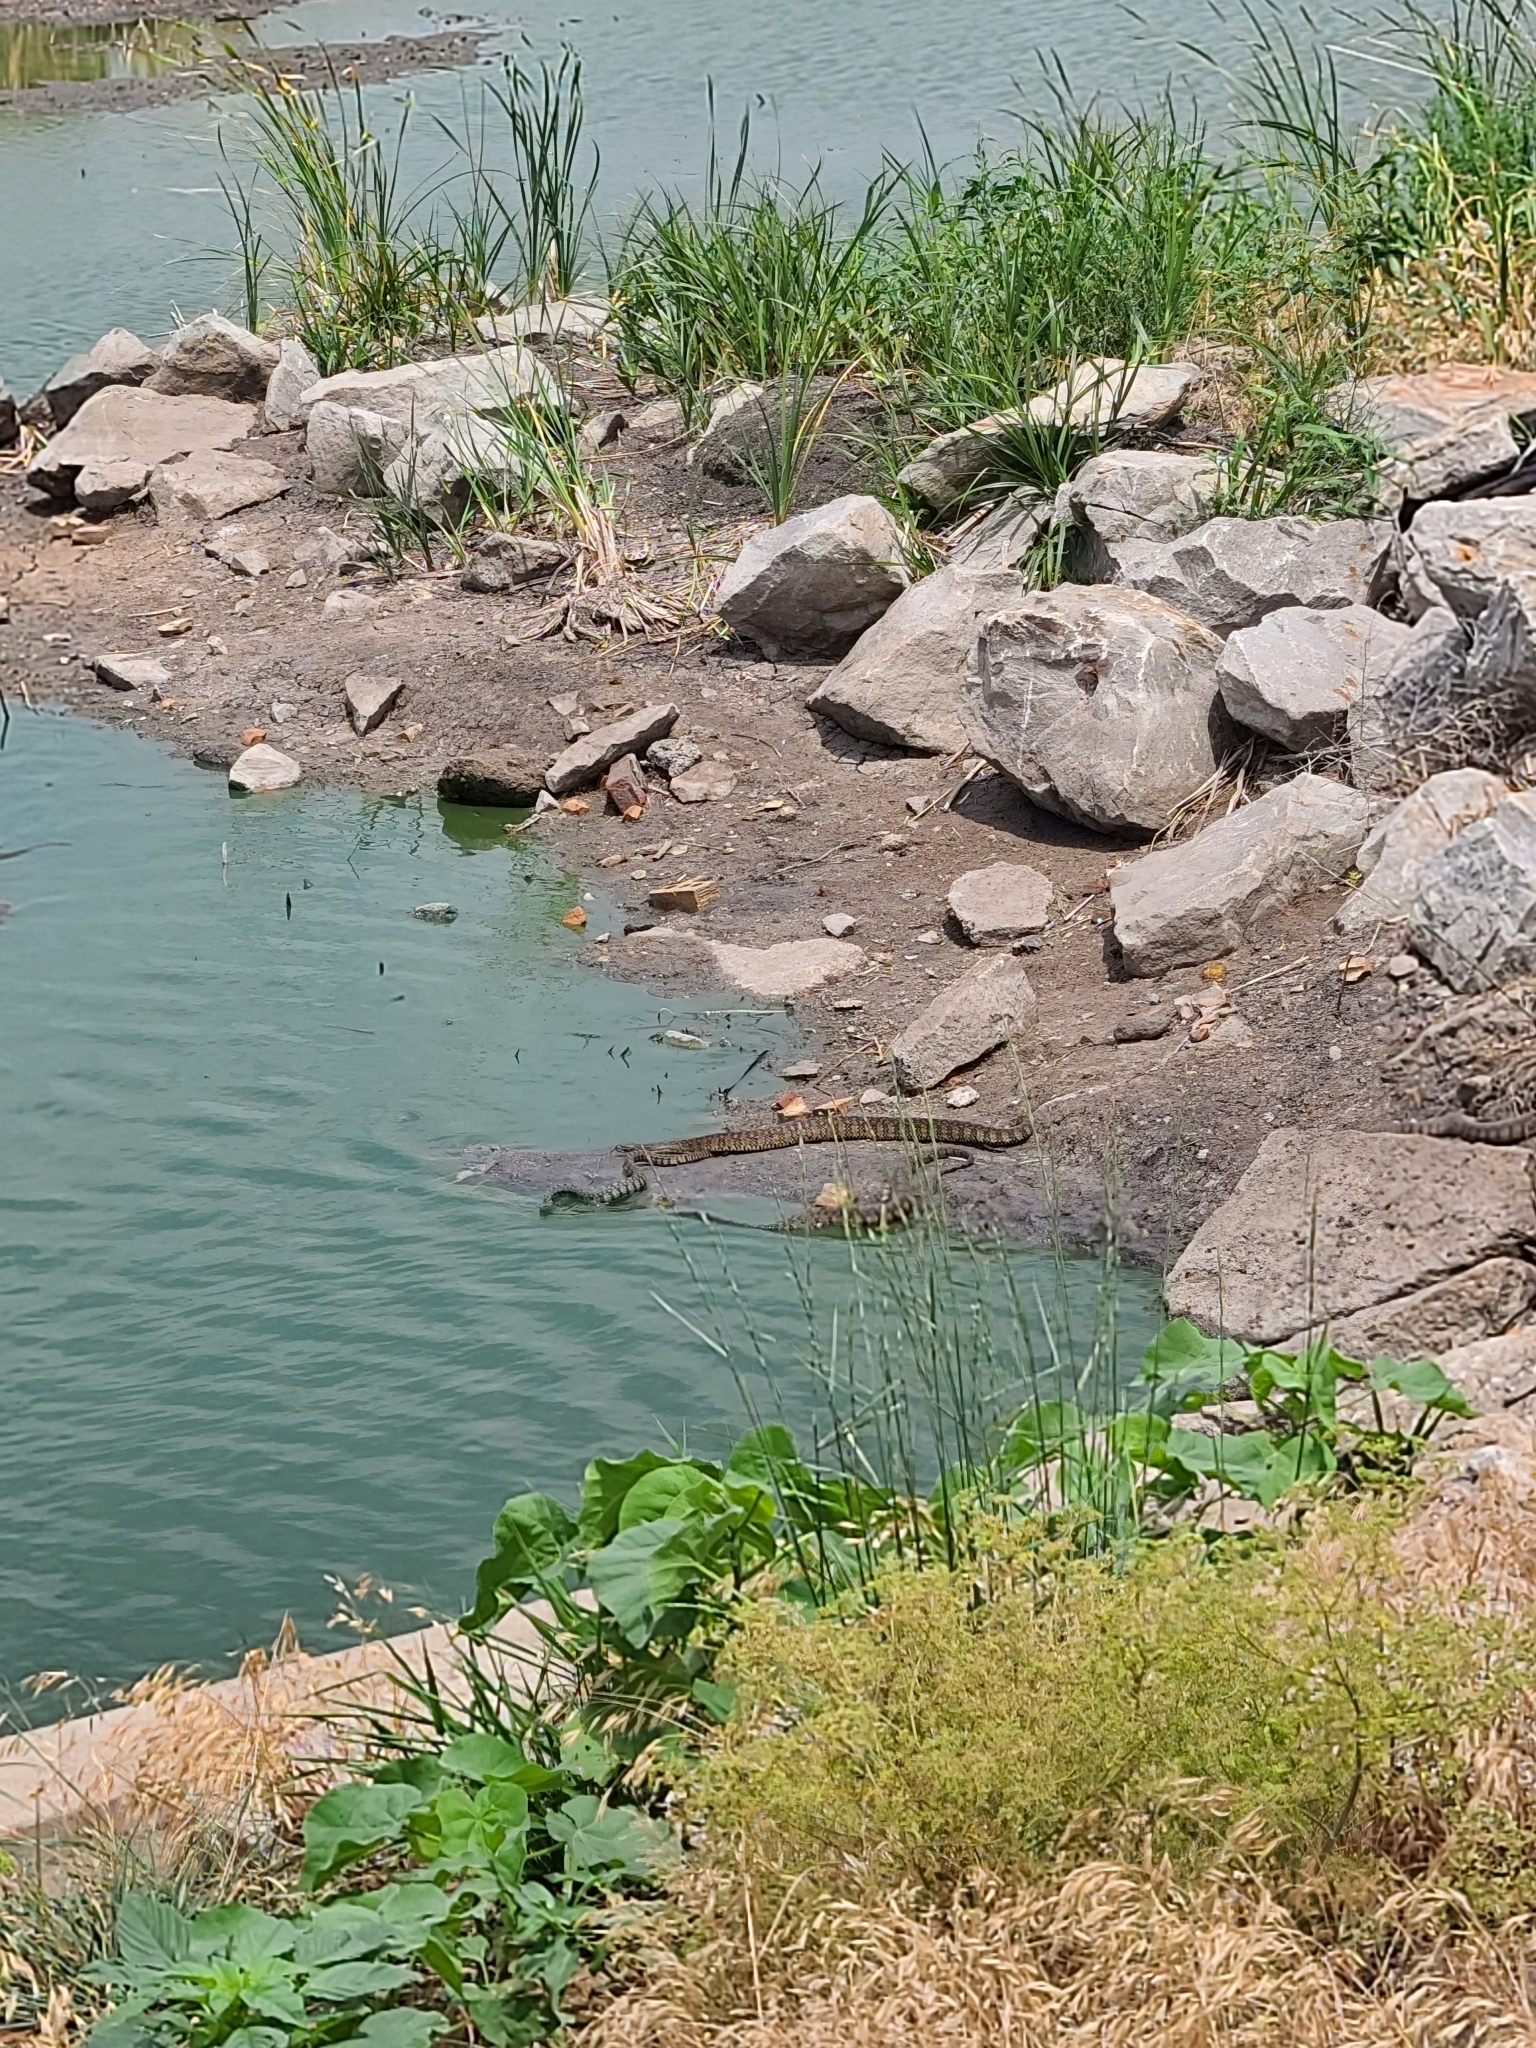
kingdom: Animalia
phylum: Chordata
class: Squamata
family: Colubridae
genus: Nerodia
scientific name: Nerodia rhombifer
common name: Diamondback water snake
